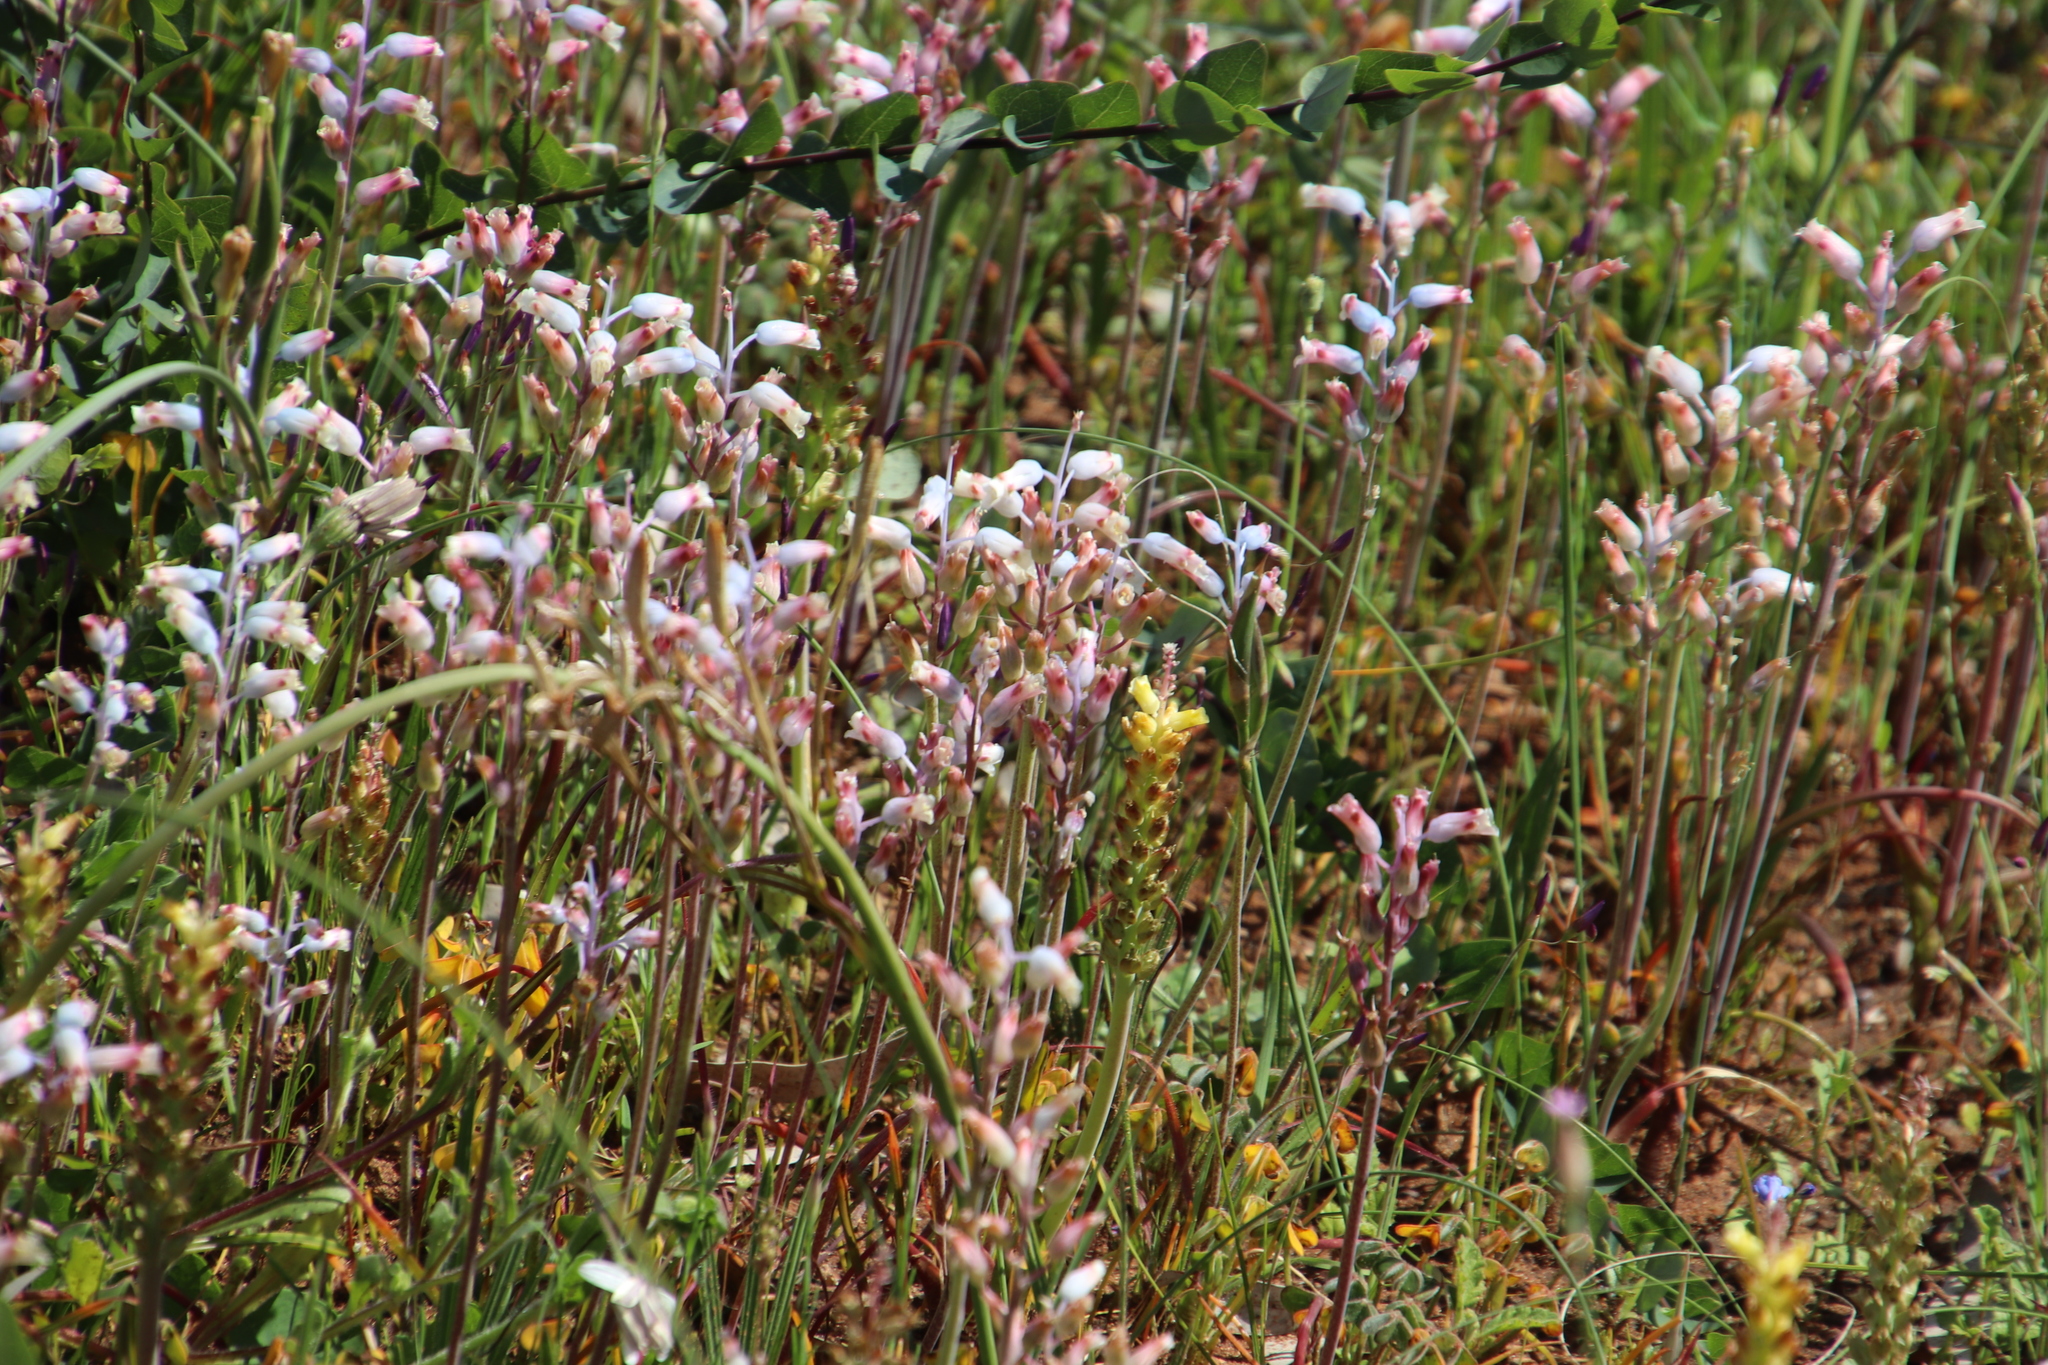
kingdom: Plantae
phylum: Tracheophyta
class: Liliopsida
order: Asparagales
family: Asparagaceae
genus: Lachenalia
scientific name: Lachenalia unifolia
